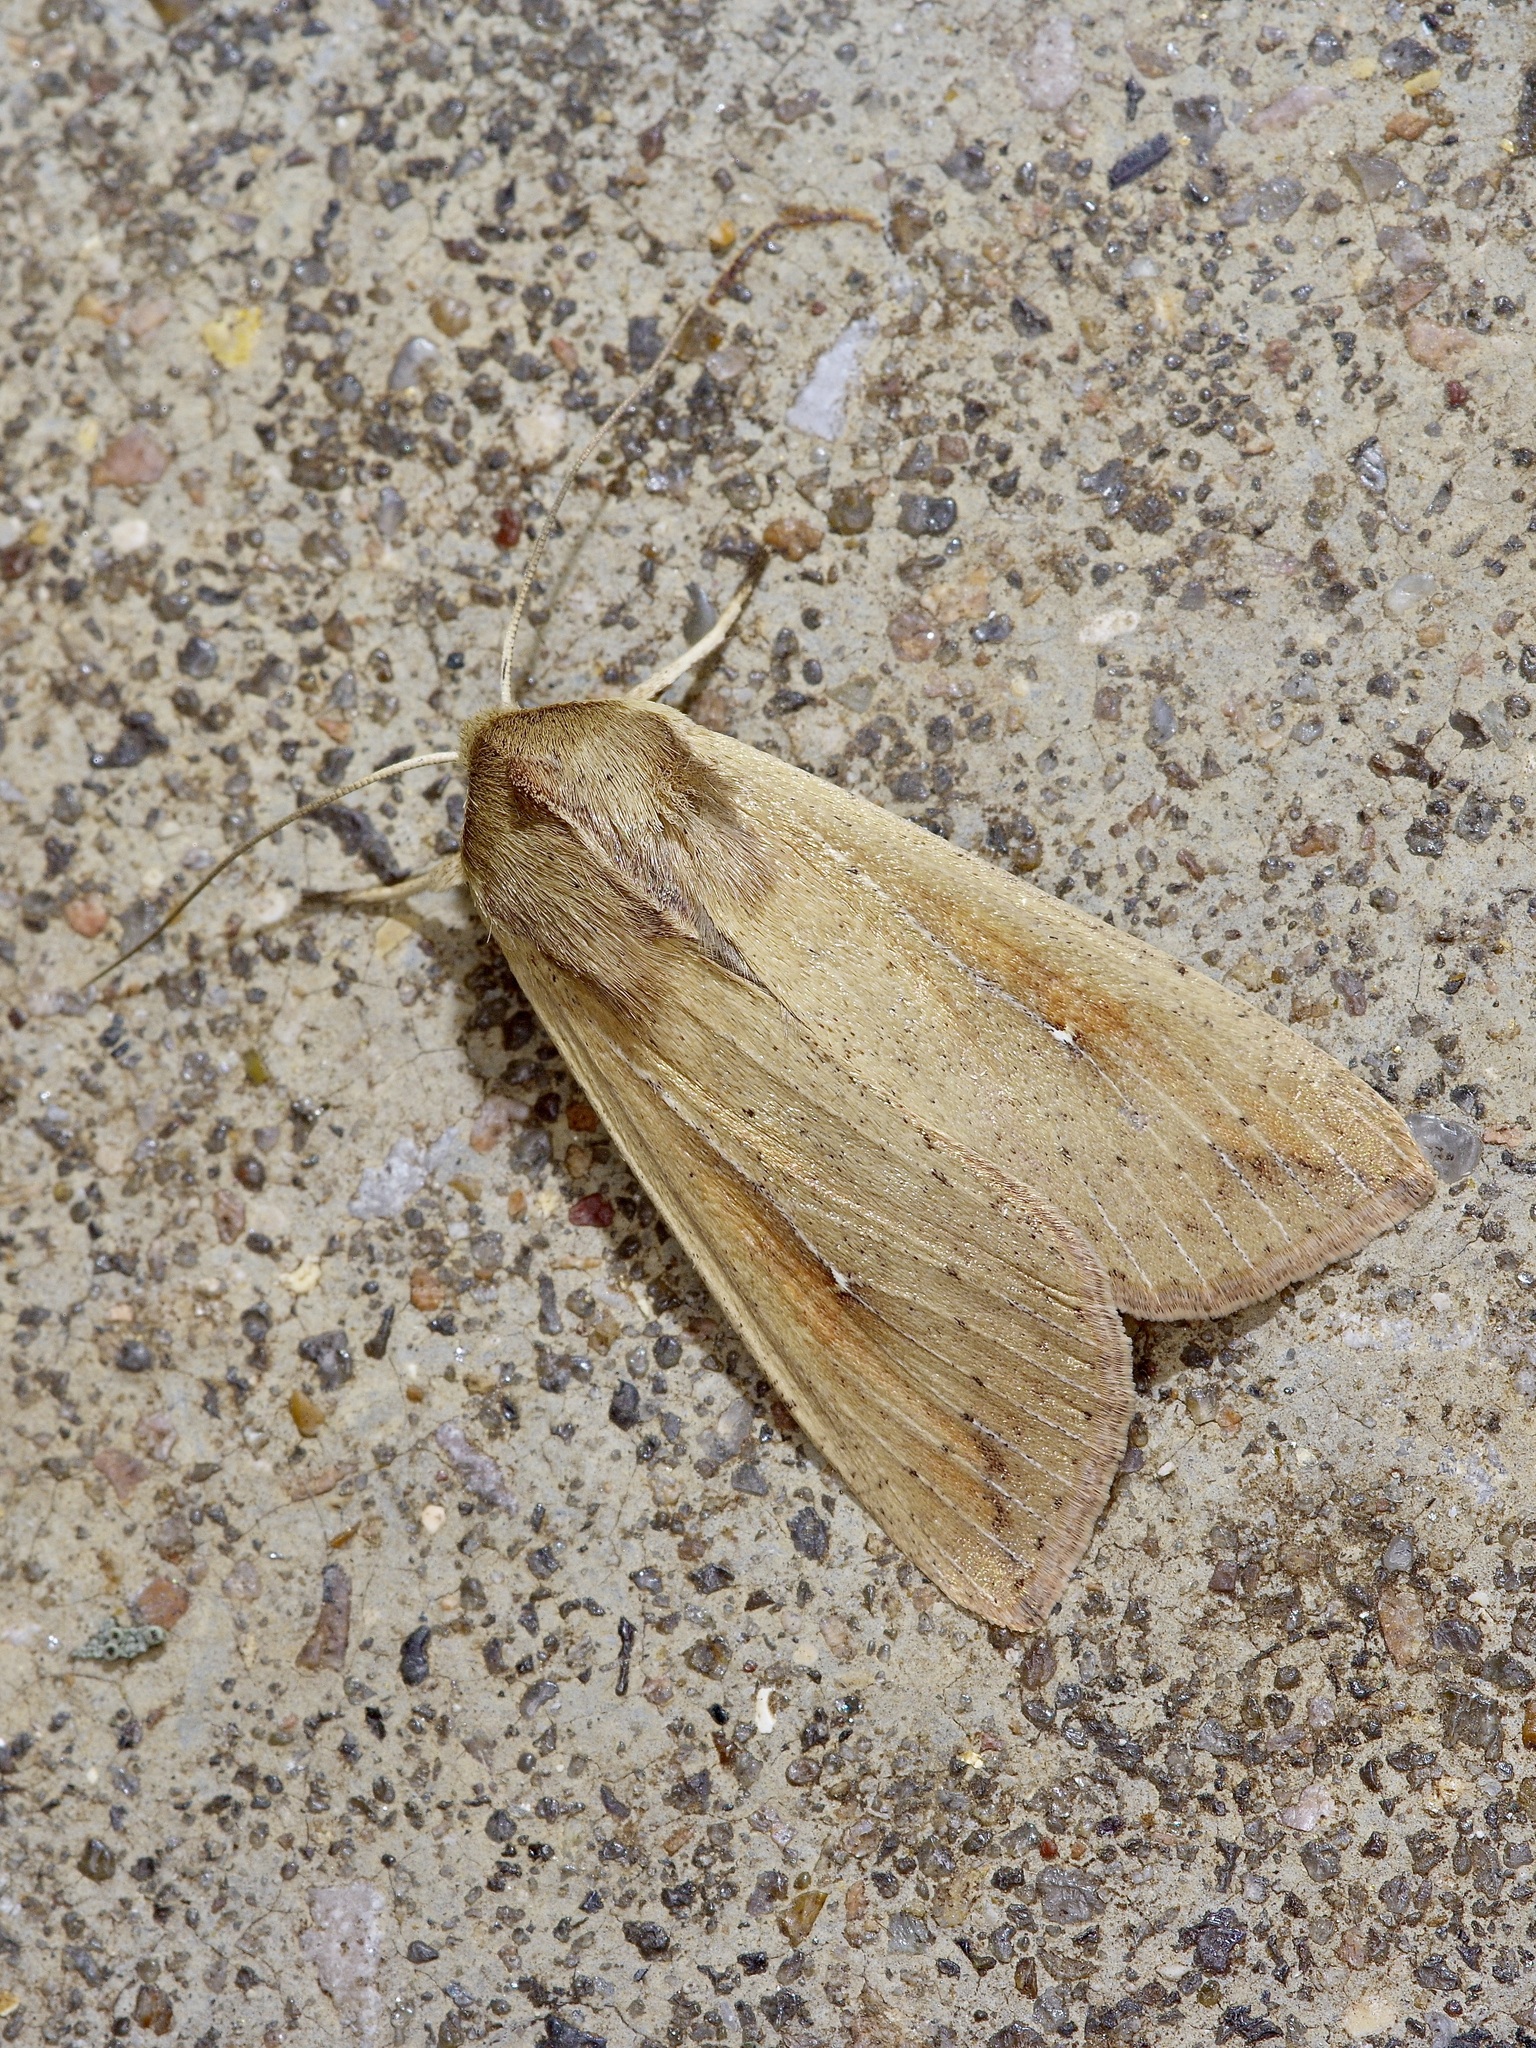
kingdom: Animalia
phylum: Arthropoda
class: Insecta
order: Lepidoptera
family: Noctuidae
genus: Mythimna
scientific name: Mythimna unipuncta
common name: White-speck
